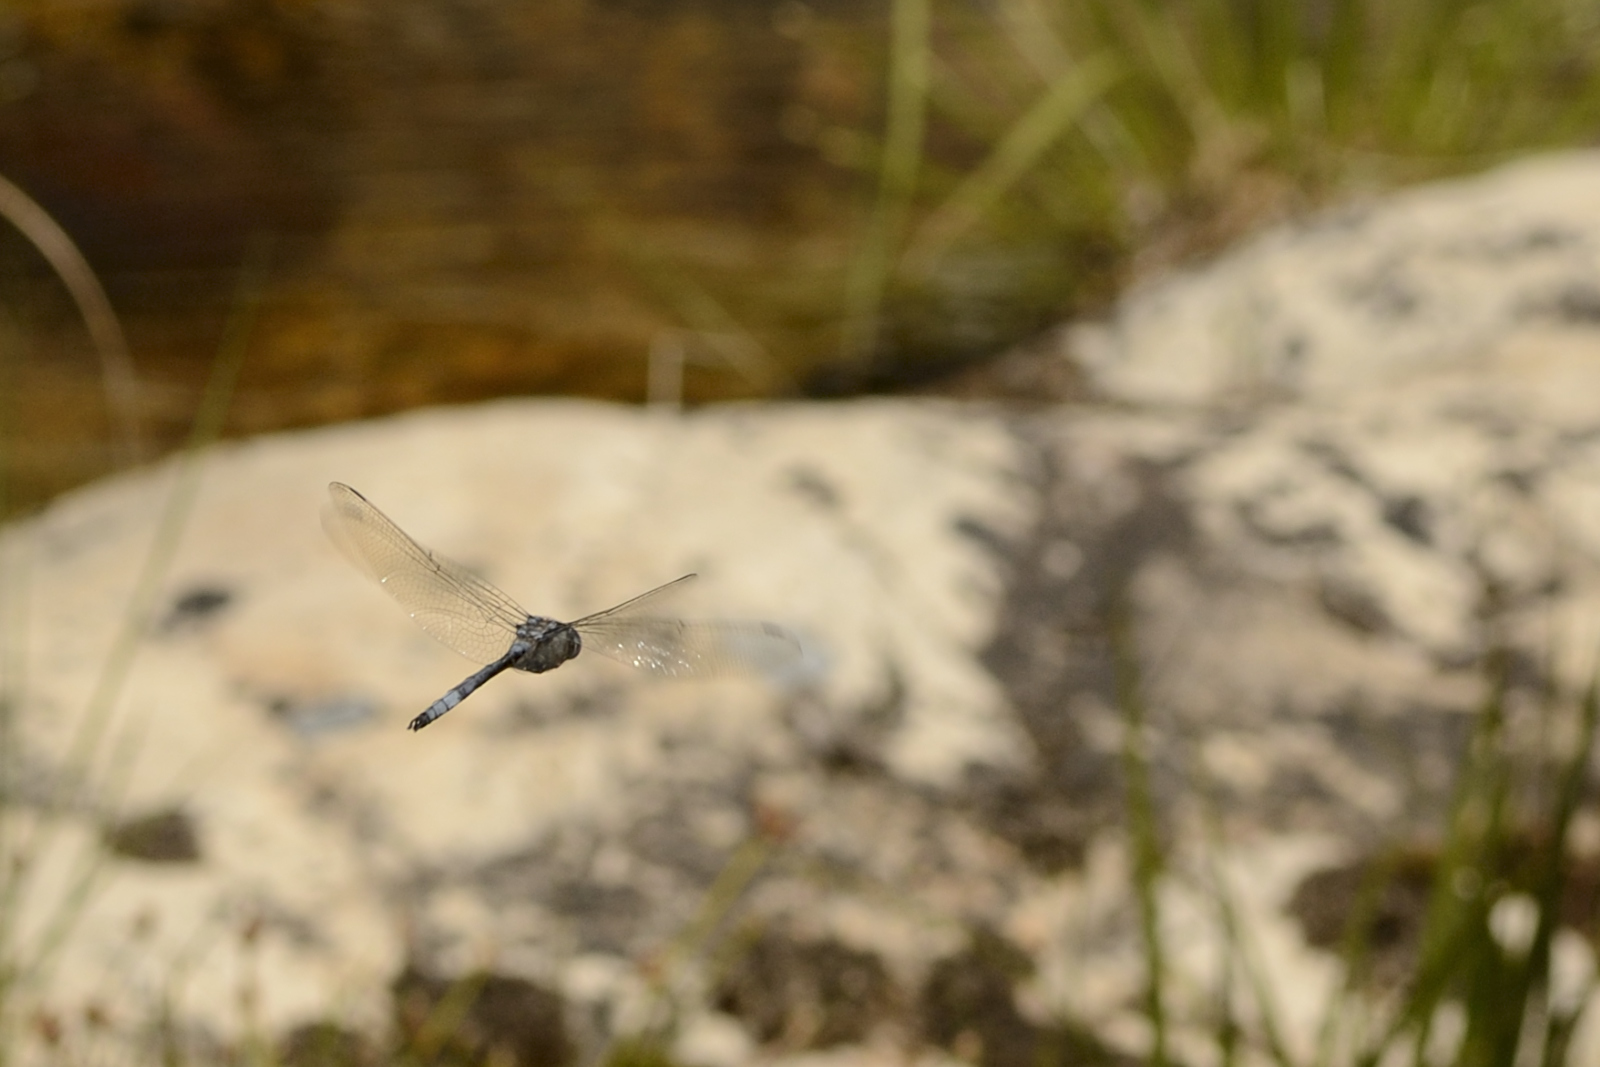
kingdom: Animalia
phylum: Arthropoda
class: Insecta
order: Odonata
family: Libellulidae
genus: Zygonyx
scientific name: Zygonyx natalensis
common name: Blue cascader
